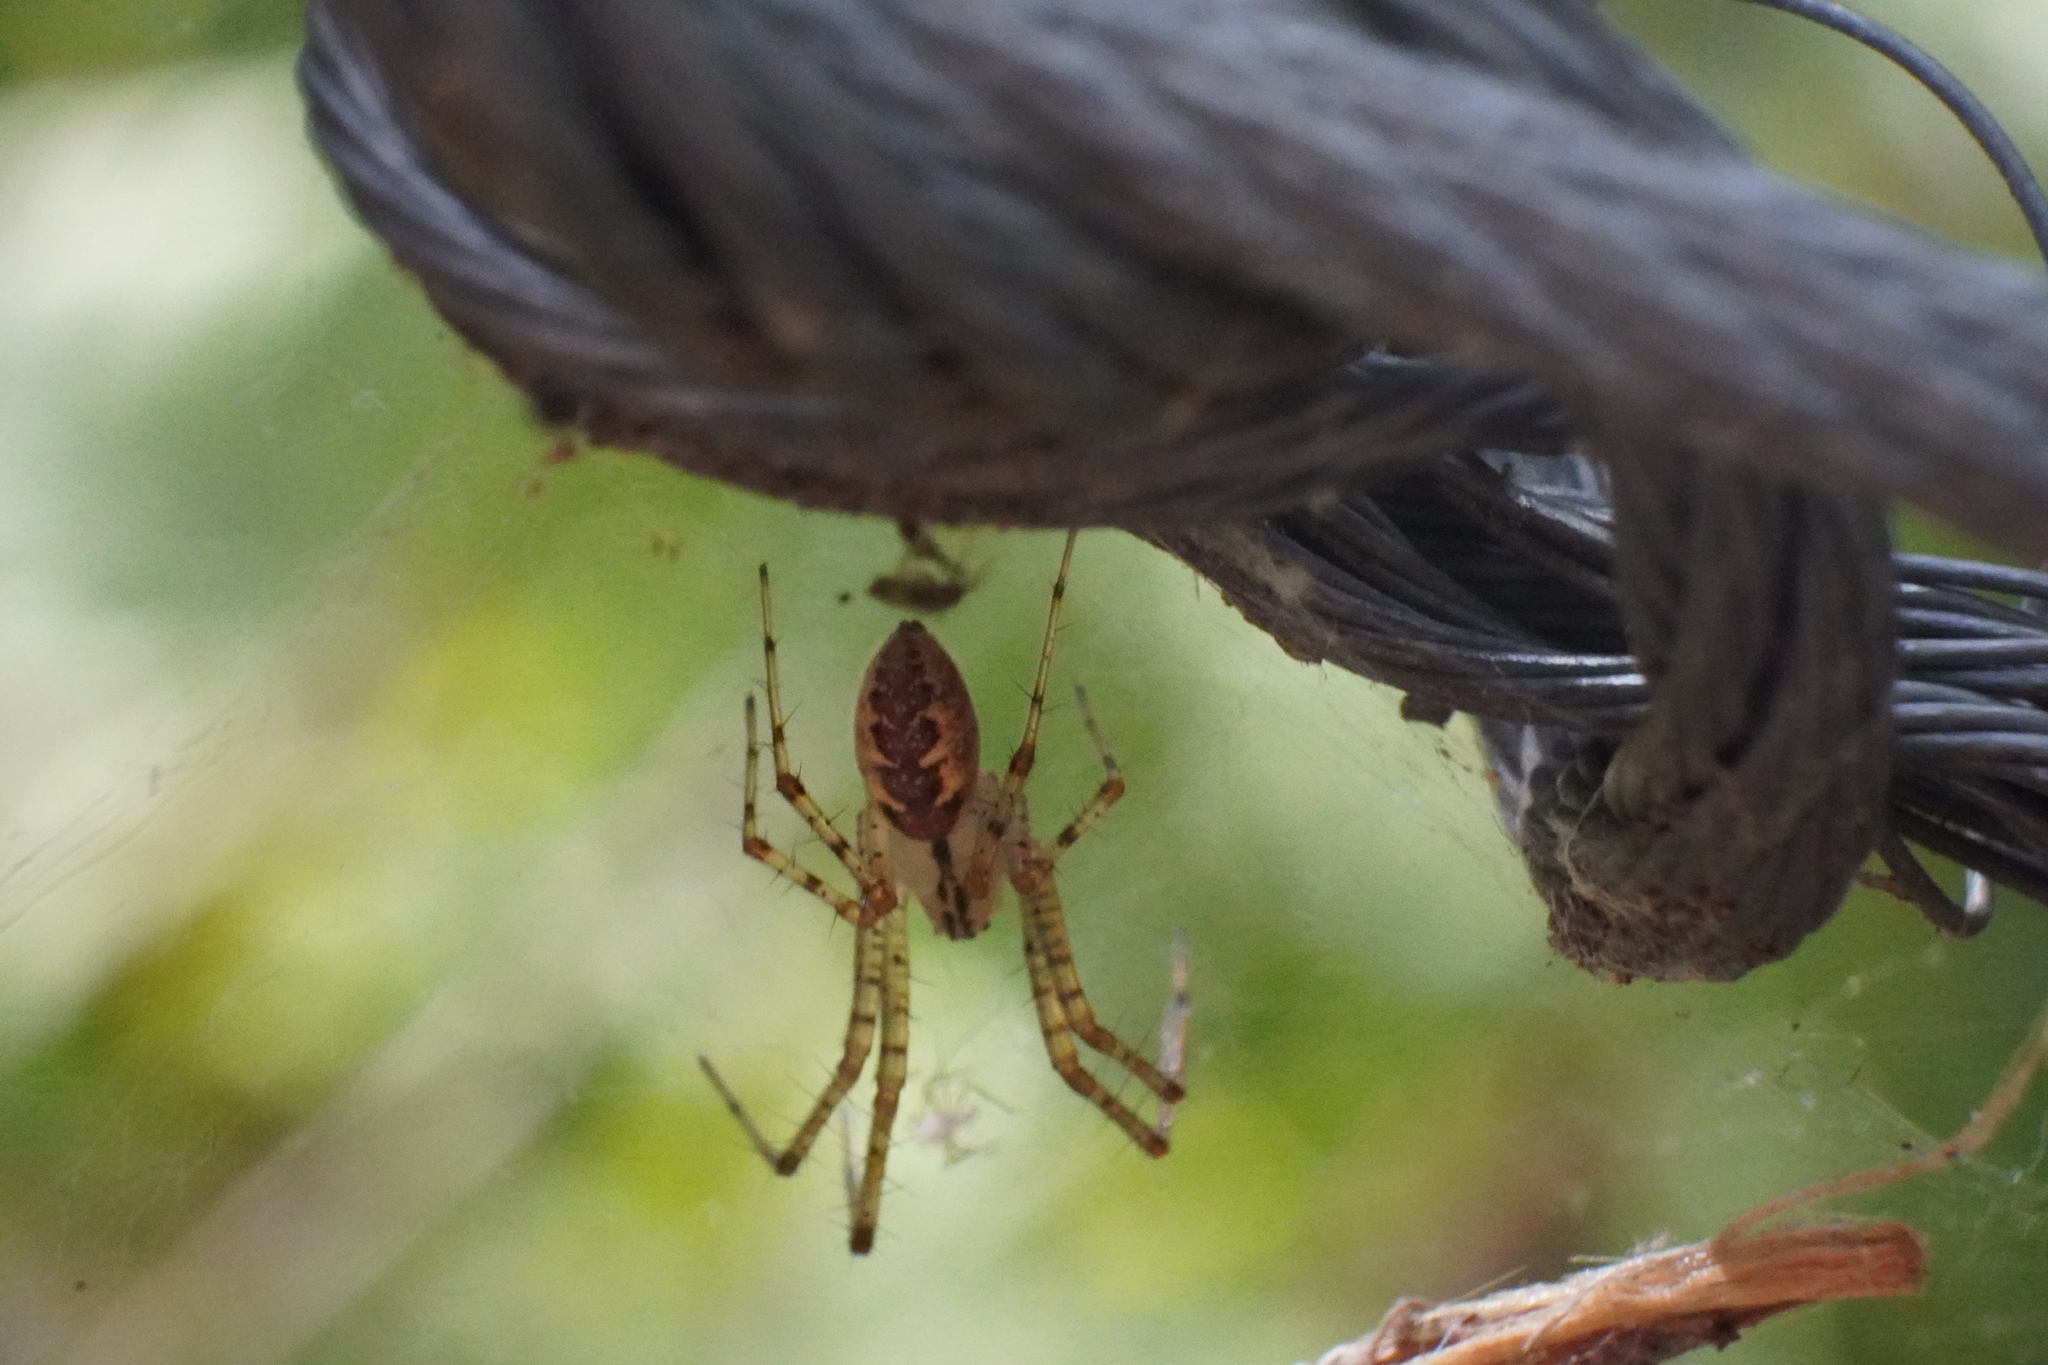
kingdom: Animalia
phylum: Arthropoda
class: Arachnida
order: Araneae
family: Linyphiidae
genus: Pityohyphantes
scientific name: Pityohyphantes costatus
